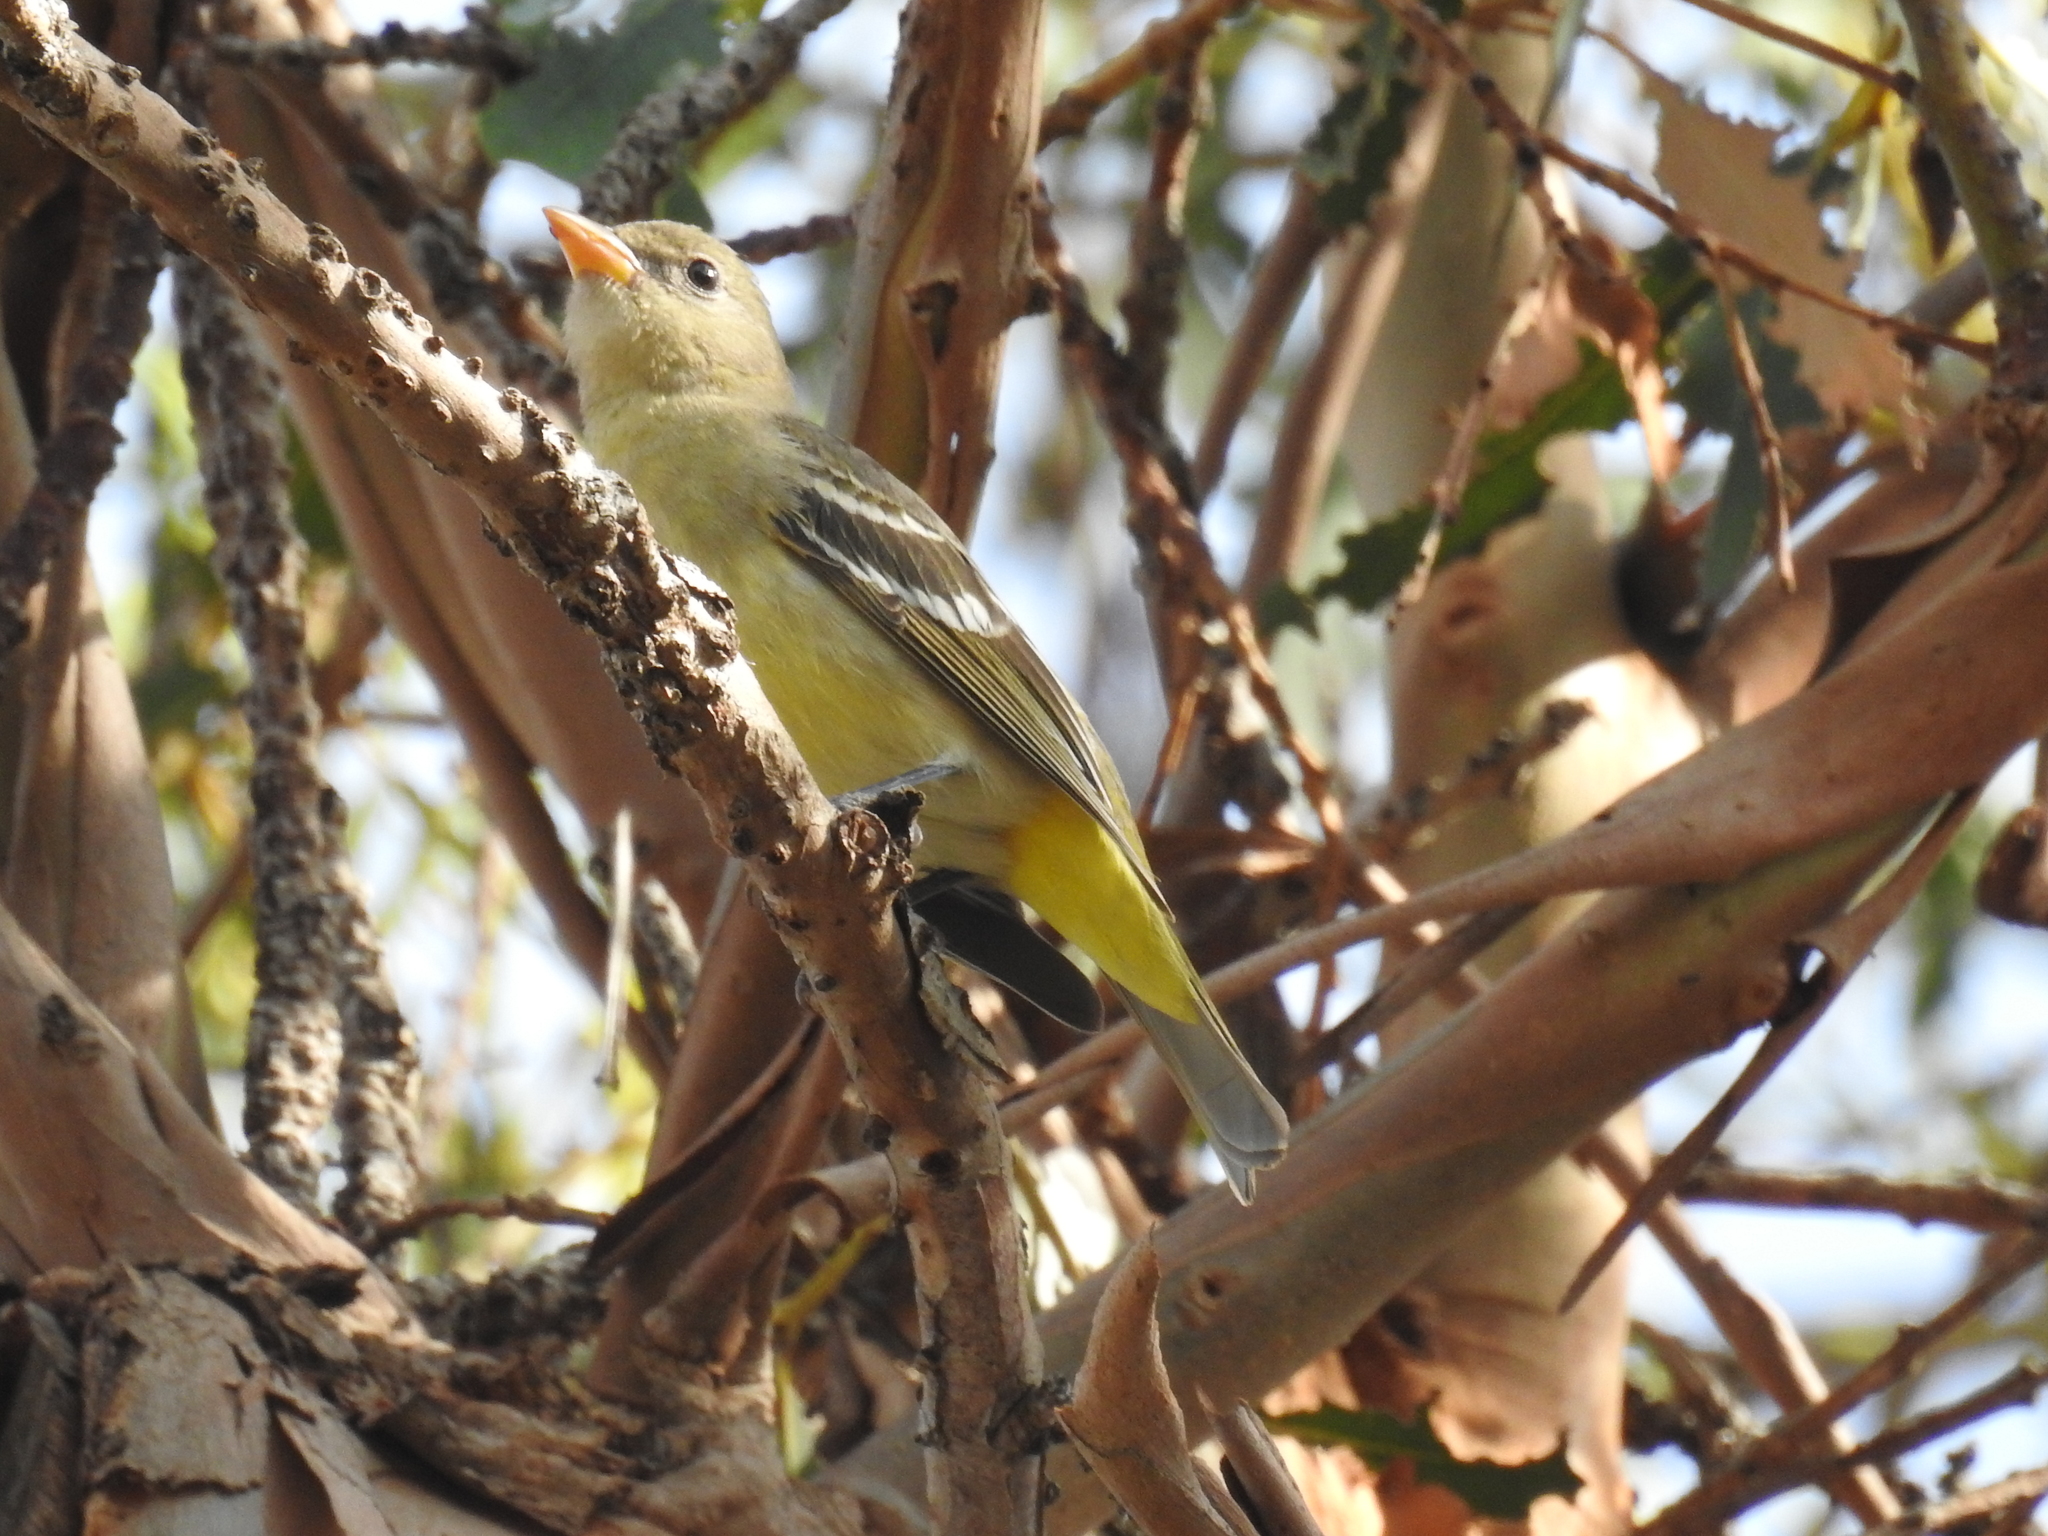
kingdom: Animalia
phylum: Chordata
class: Aves
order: Passeriformes
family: Cardinalidae
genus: Piranga
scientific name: Piranga ludoviciana
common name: Western tanager
